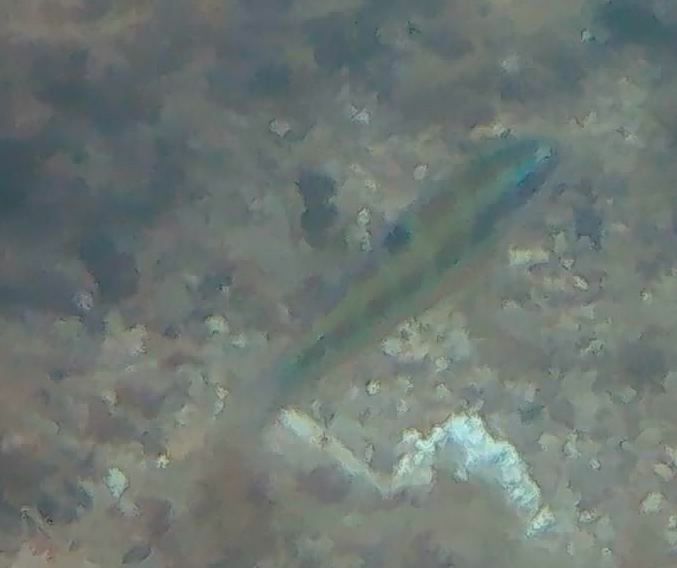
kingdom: Animalia
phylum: Chordata
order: Perciformes
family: Labridae
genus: Thalassoma
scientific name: Thalassoma pavo
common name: Ornate wrasse
